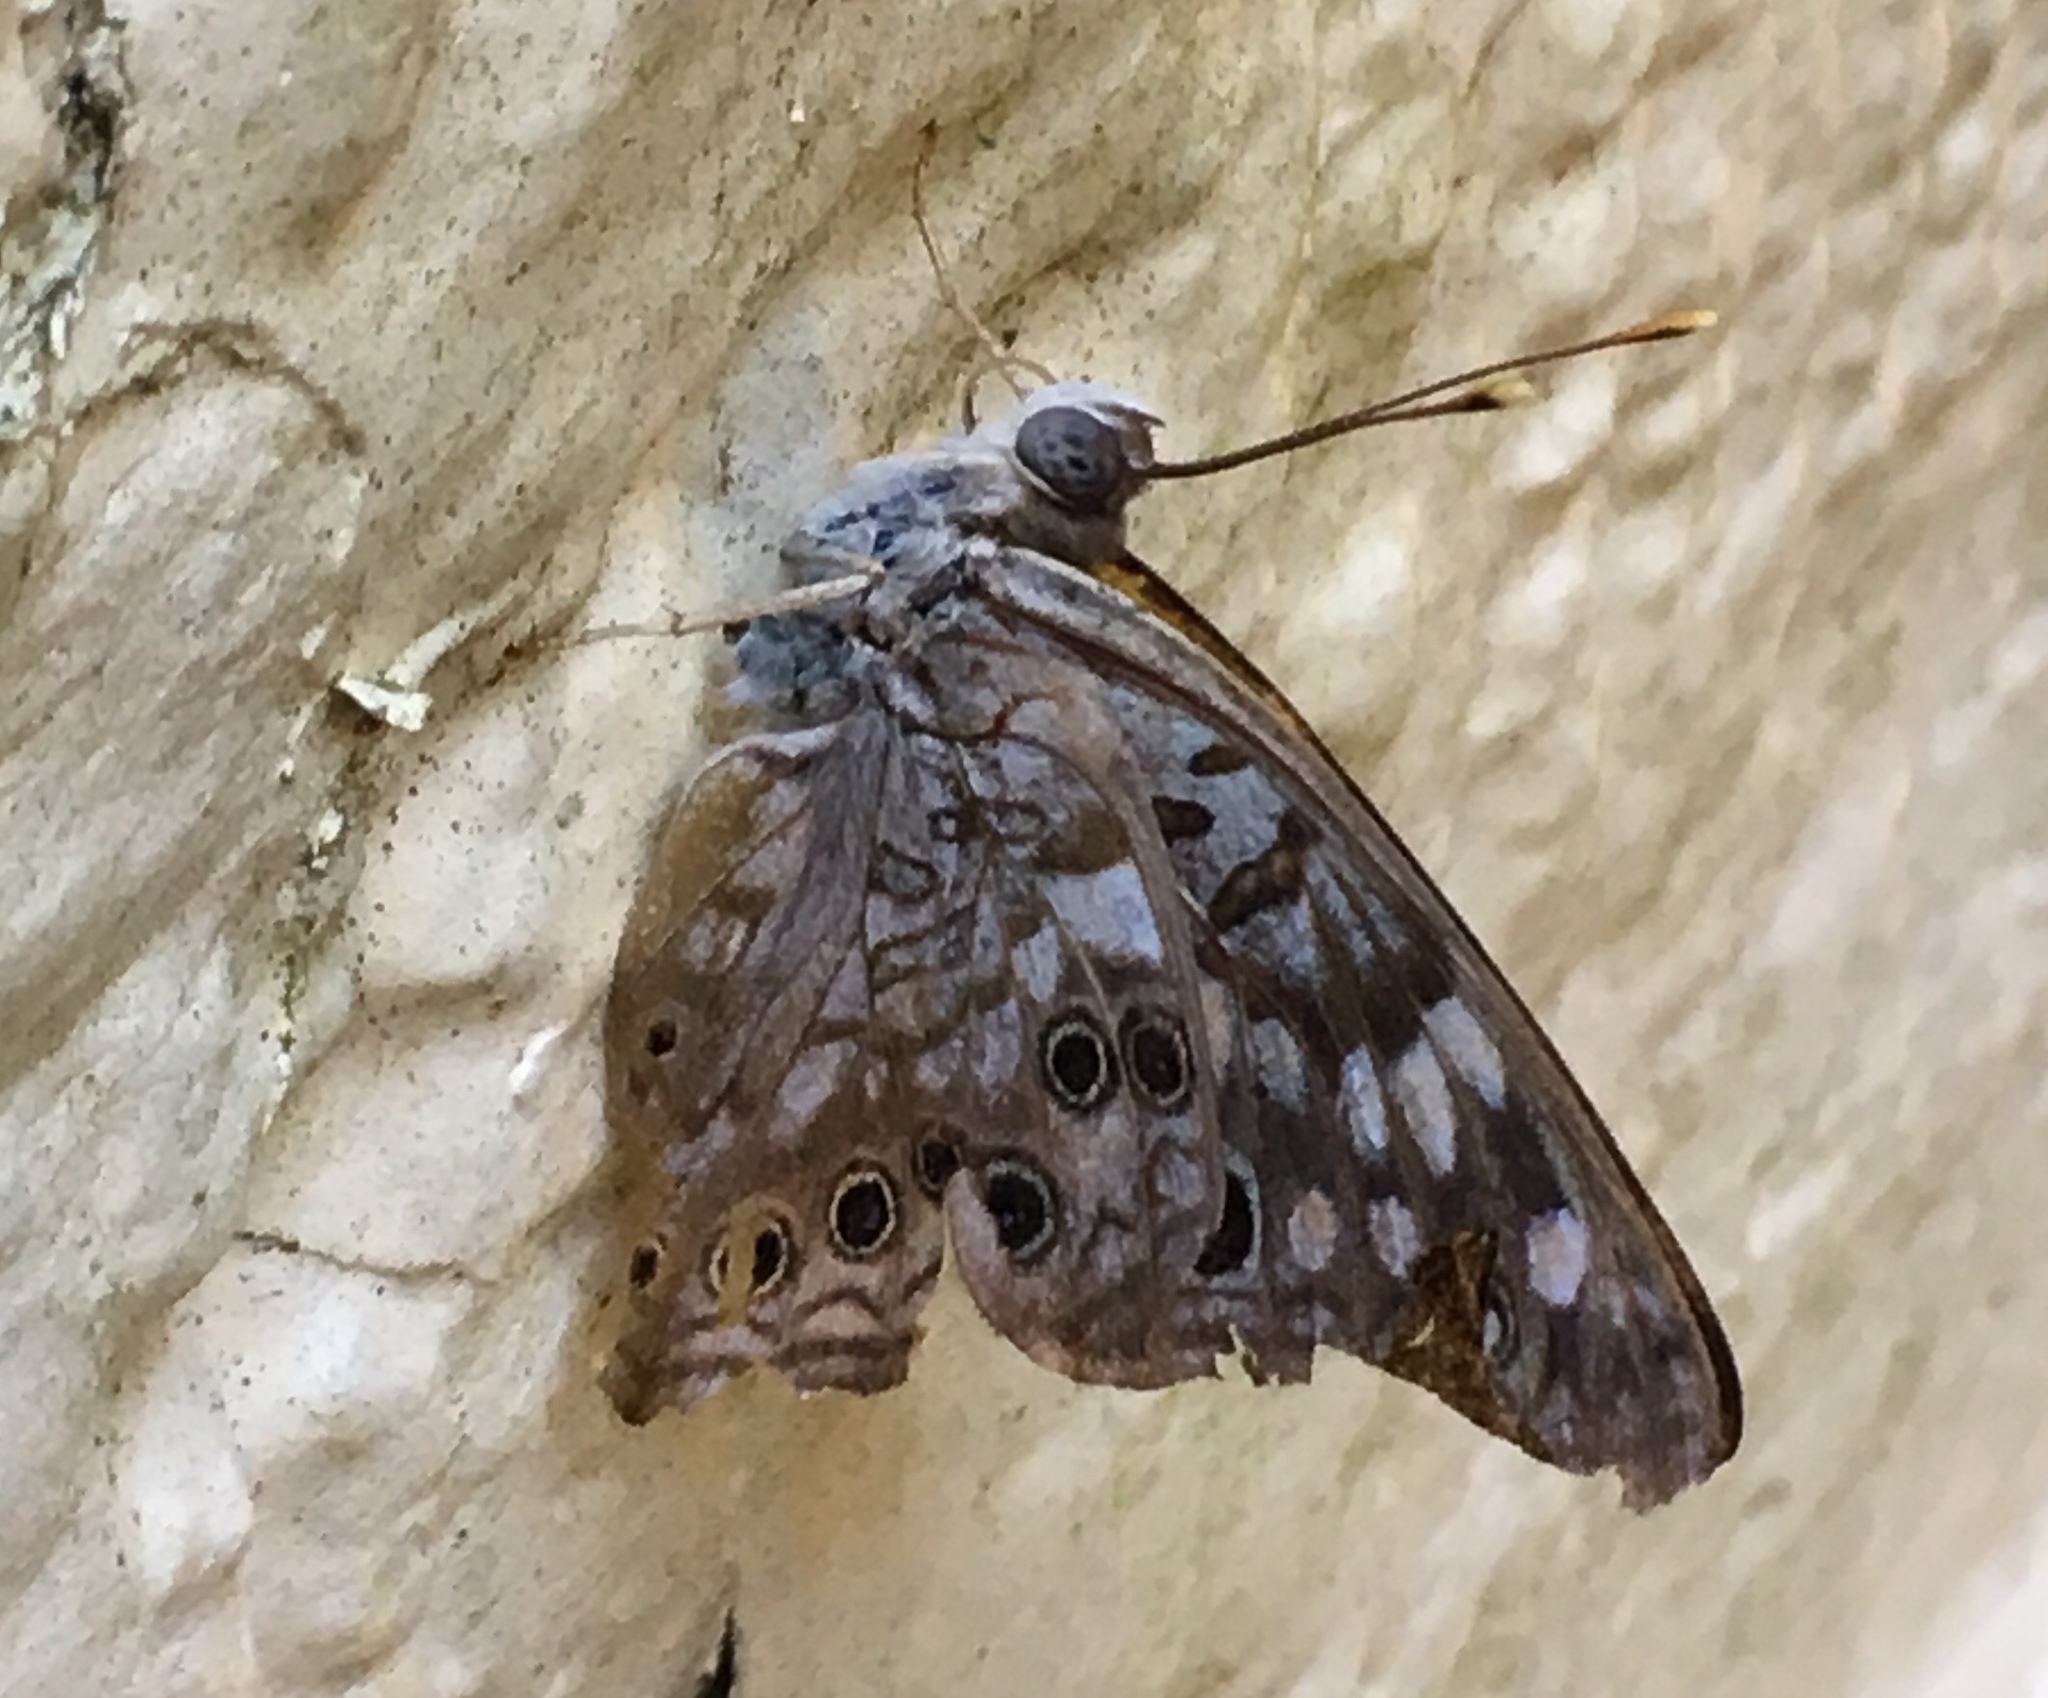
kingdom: Animalia
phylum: Arthropoda
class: Insecta
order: Lepidoptera
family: Nymphalidae
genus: Asterocampa
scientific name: Asterocampa celtis
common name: Hackberry emperor
